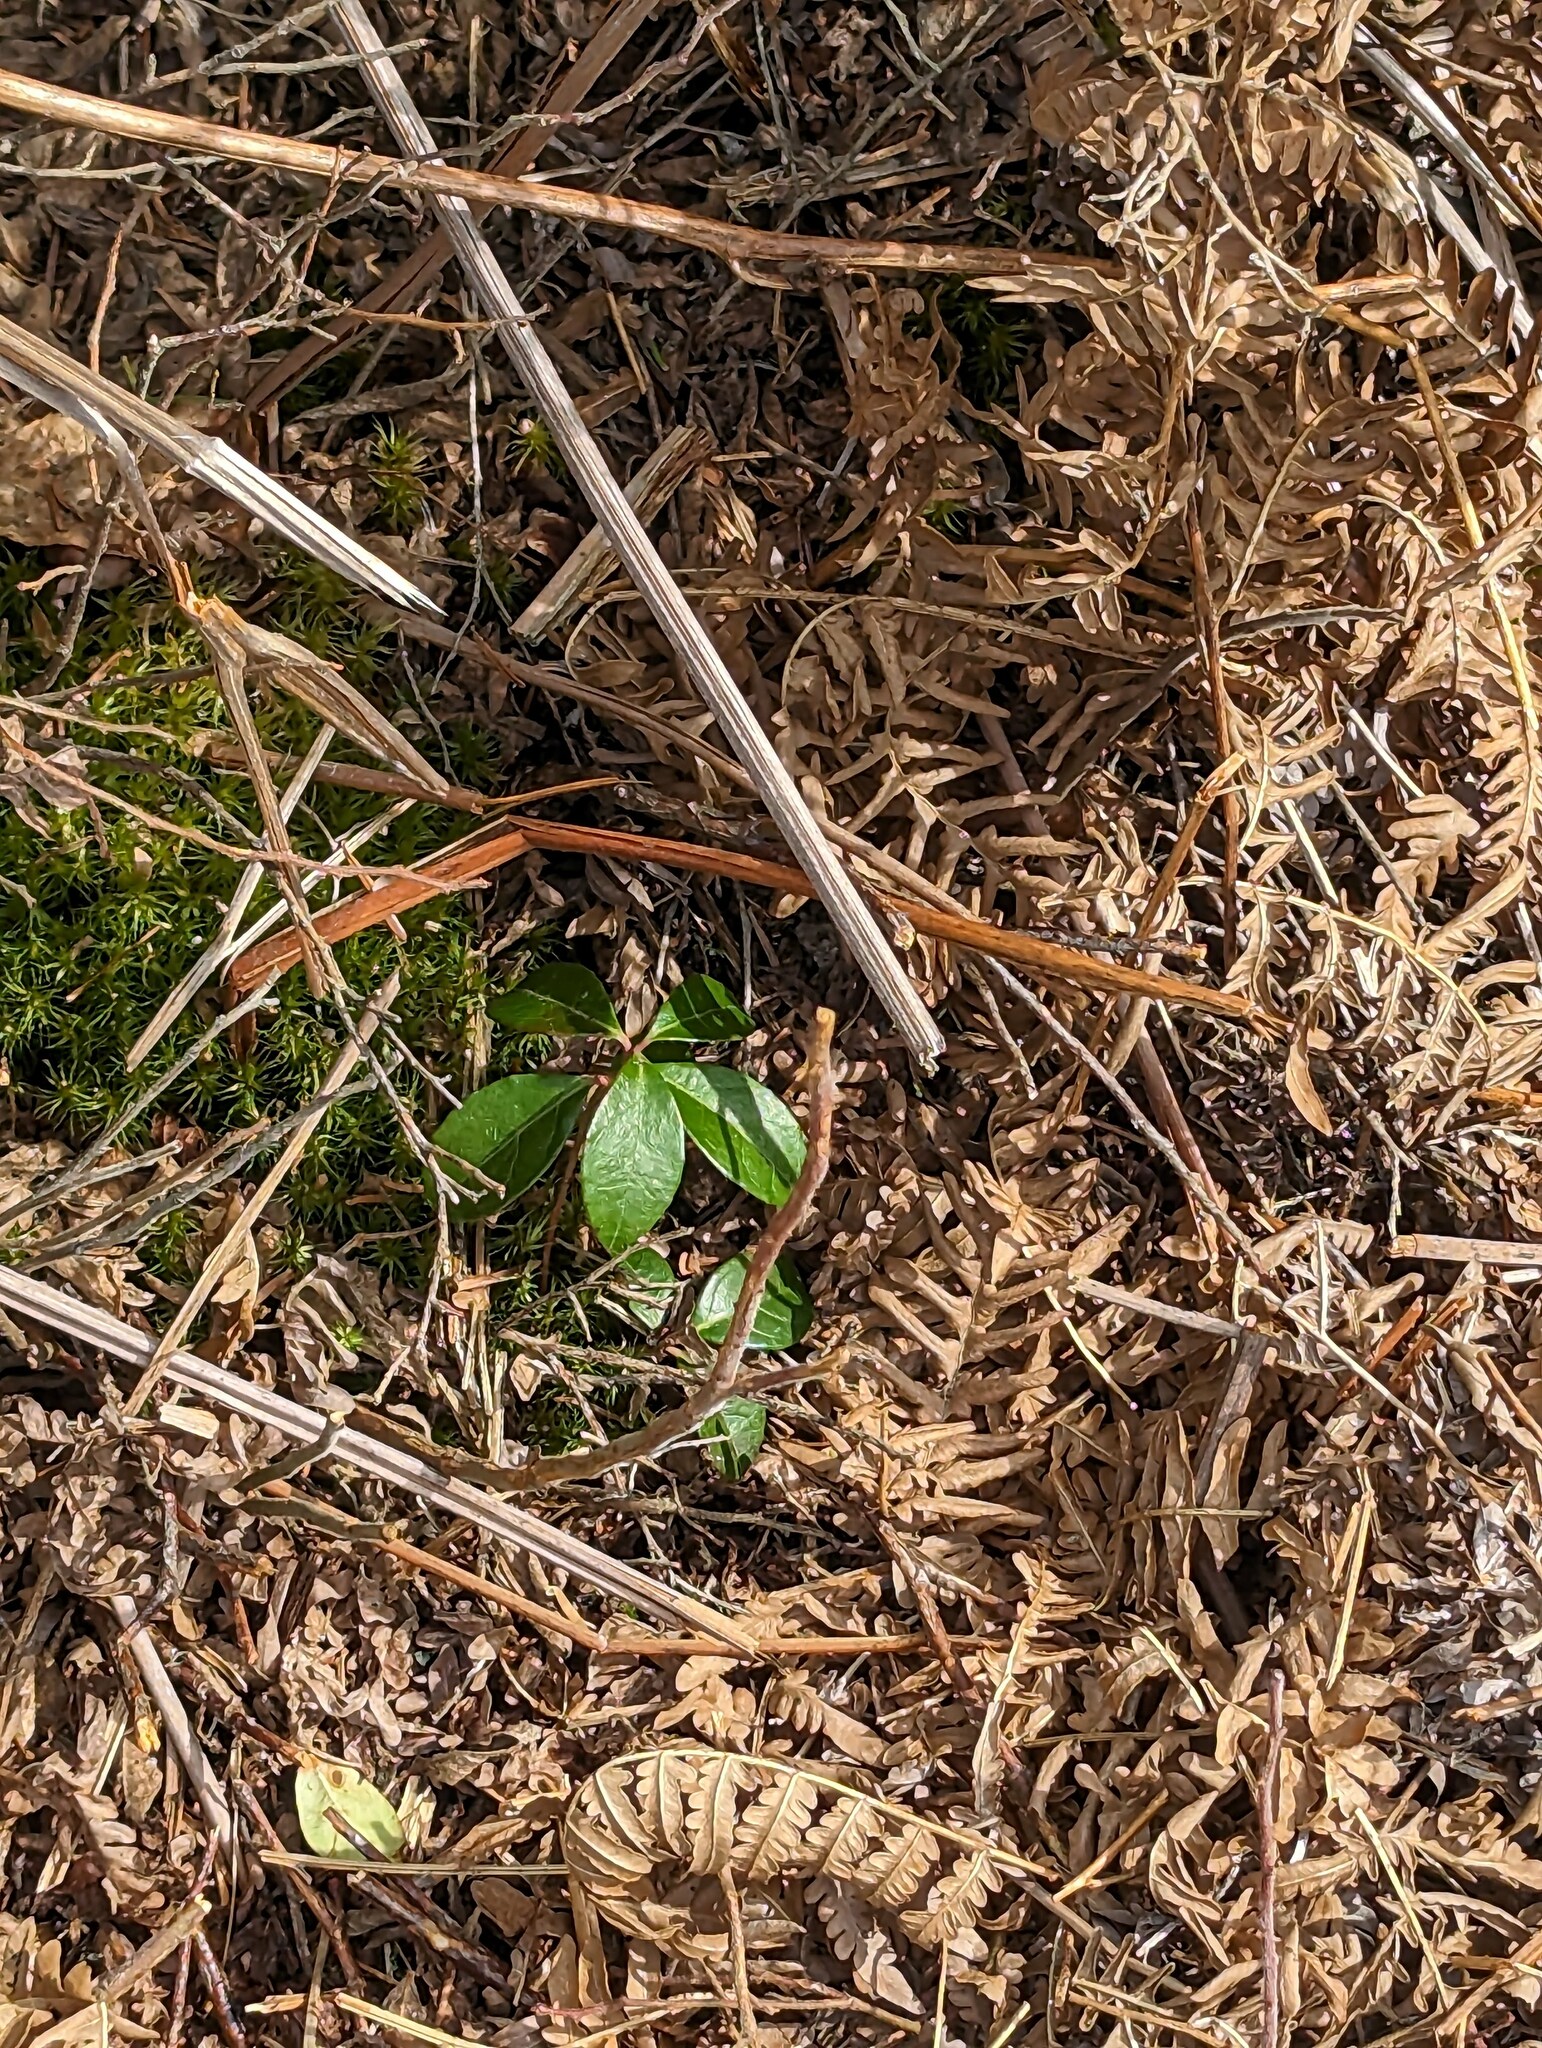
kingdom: Plantae
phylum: Tracheophyta
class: Magnoliopsida
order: Ericales
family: Ericaceae
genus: Gaultheria
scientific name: Gaultheria procumbens
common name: Checkerberry
